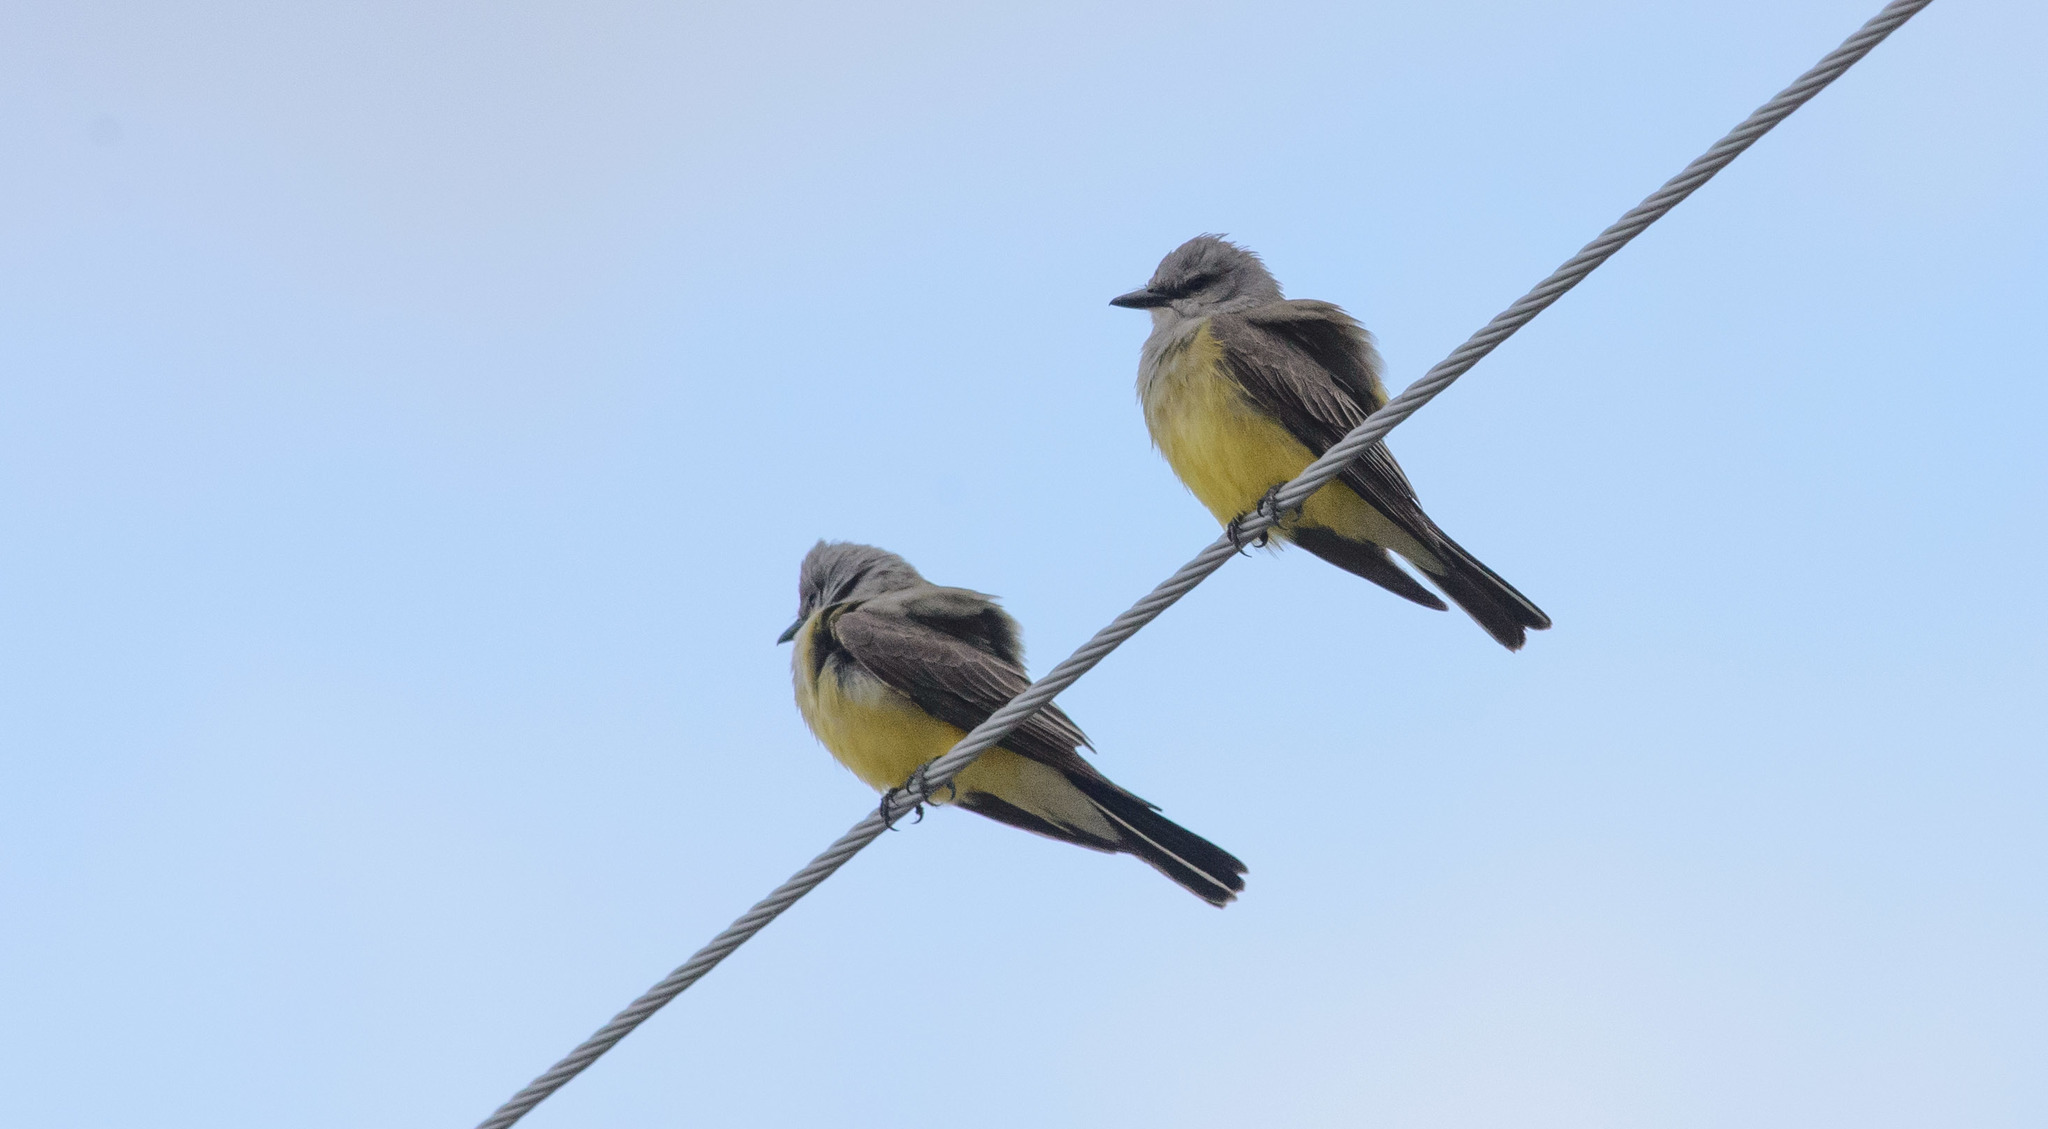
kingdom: Animalia
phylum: Chordata
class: Aves
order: Passeriformes
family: Tyrannidae
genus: Tyrannus
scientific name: Tyrannus verticalis
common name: Western kingbird
